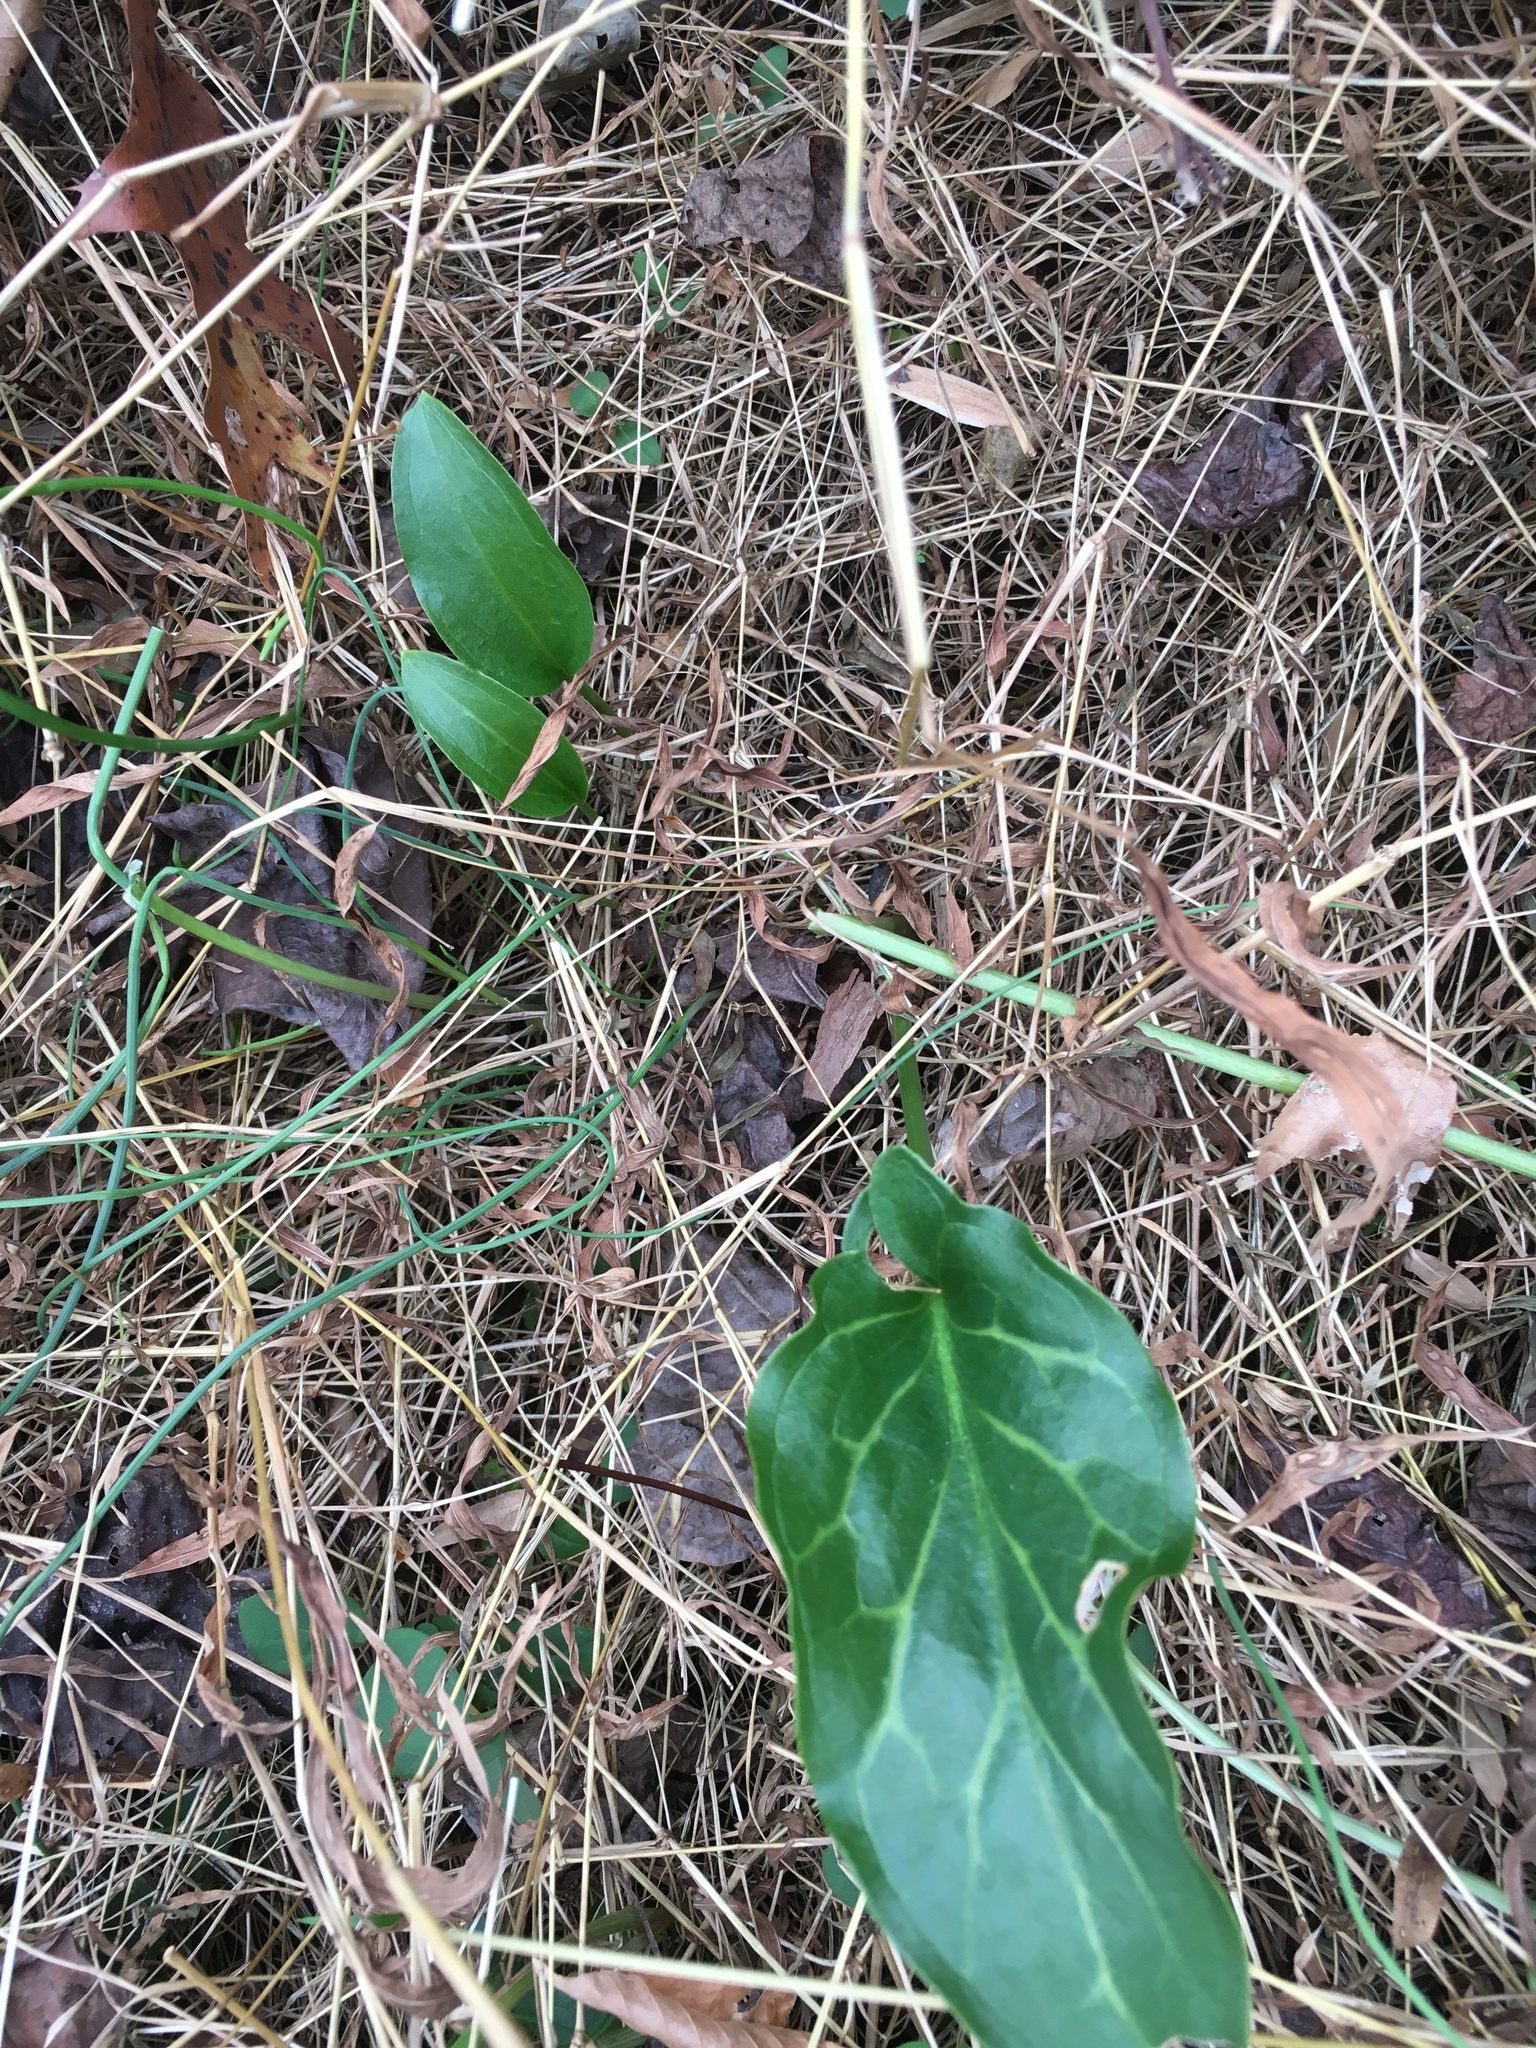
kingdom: Plantae
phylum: Tracheophyta
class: Liliopsida
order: Alismatales
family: Araceae
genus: Arum
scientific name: Arum italicum
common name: Italian lords-and-ladies
